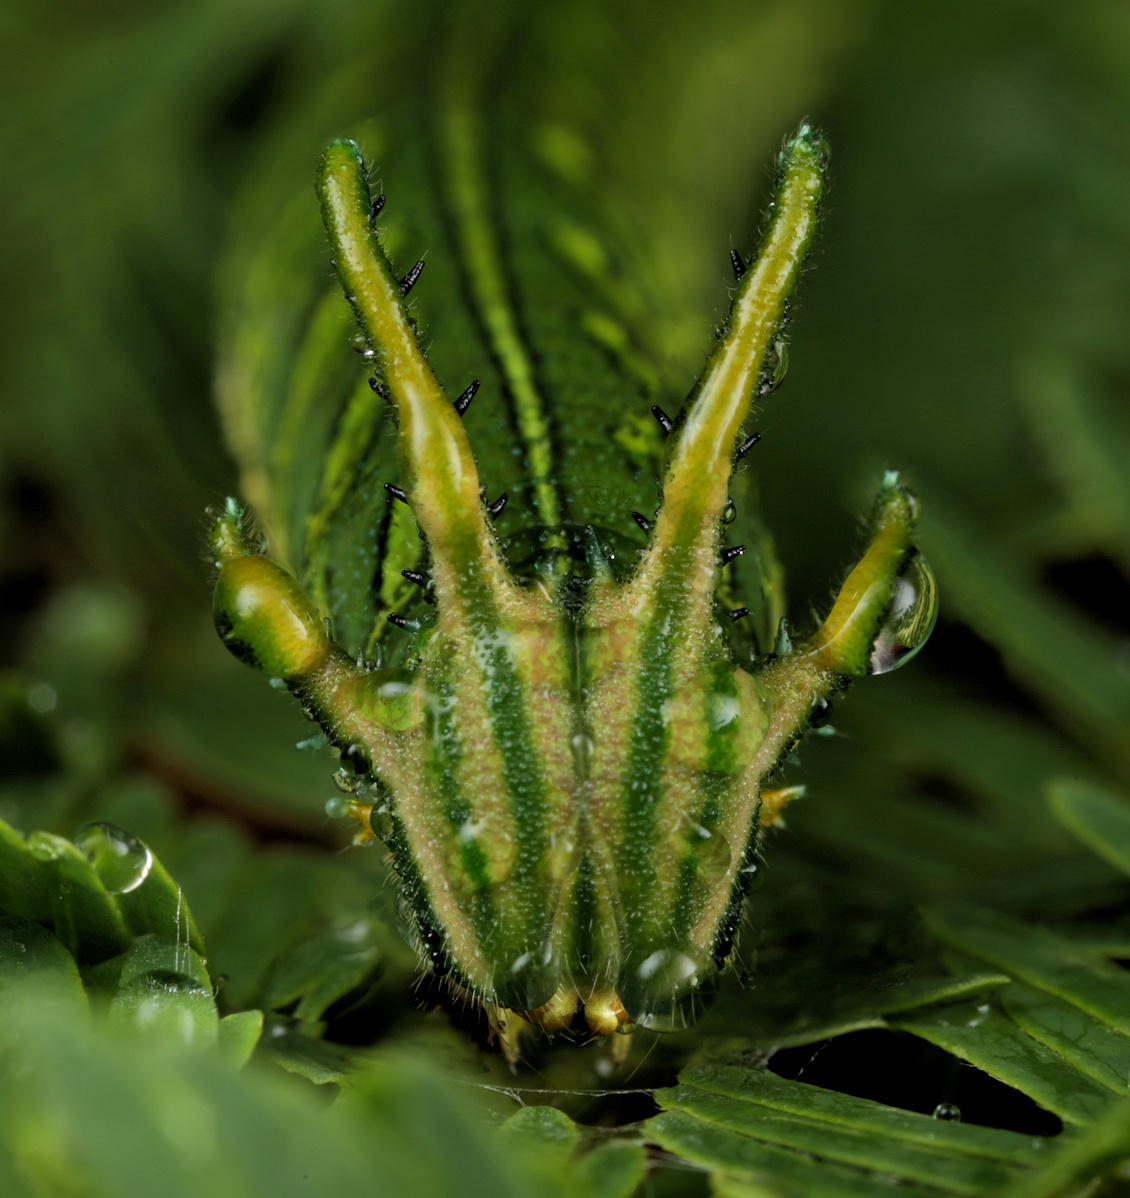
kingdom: Animalia
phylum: Arthropoda
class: Insecta
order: Lepidoptera
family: Nymphalidae
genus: Polyura
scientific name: Polyura
